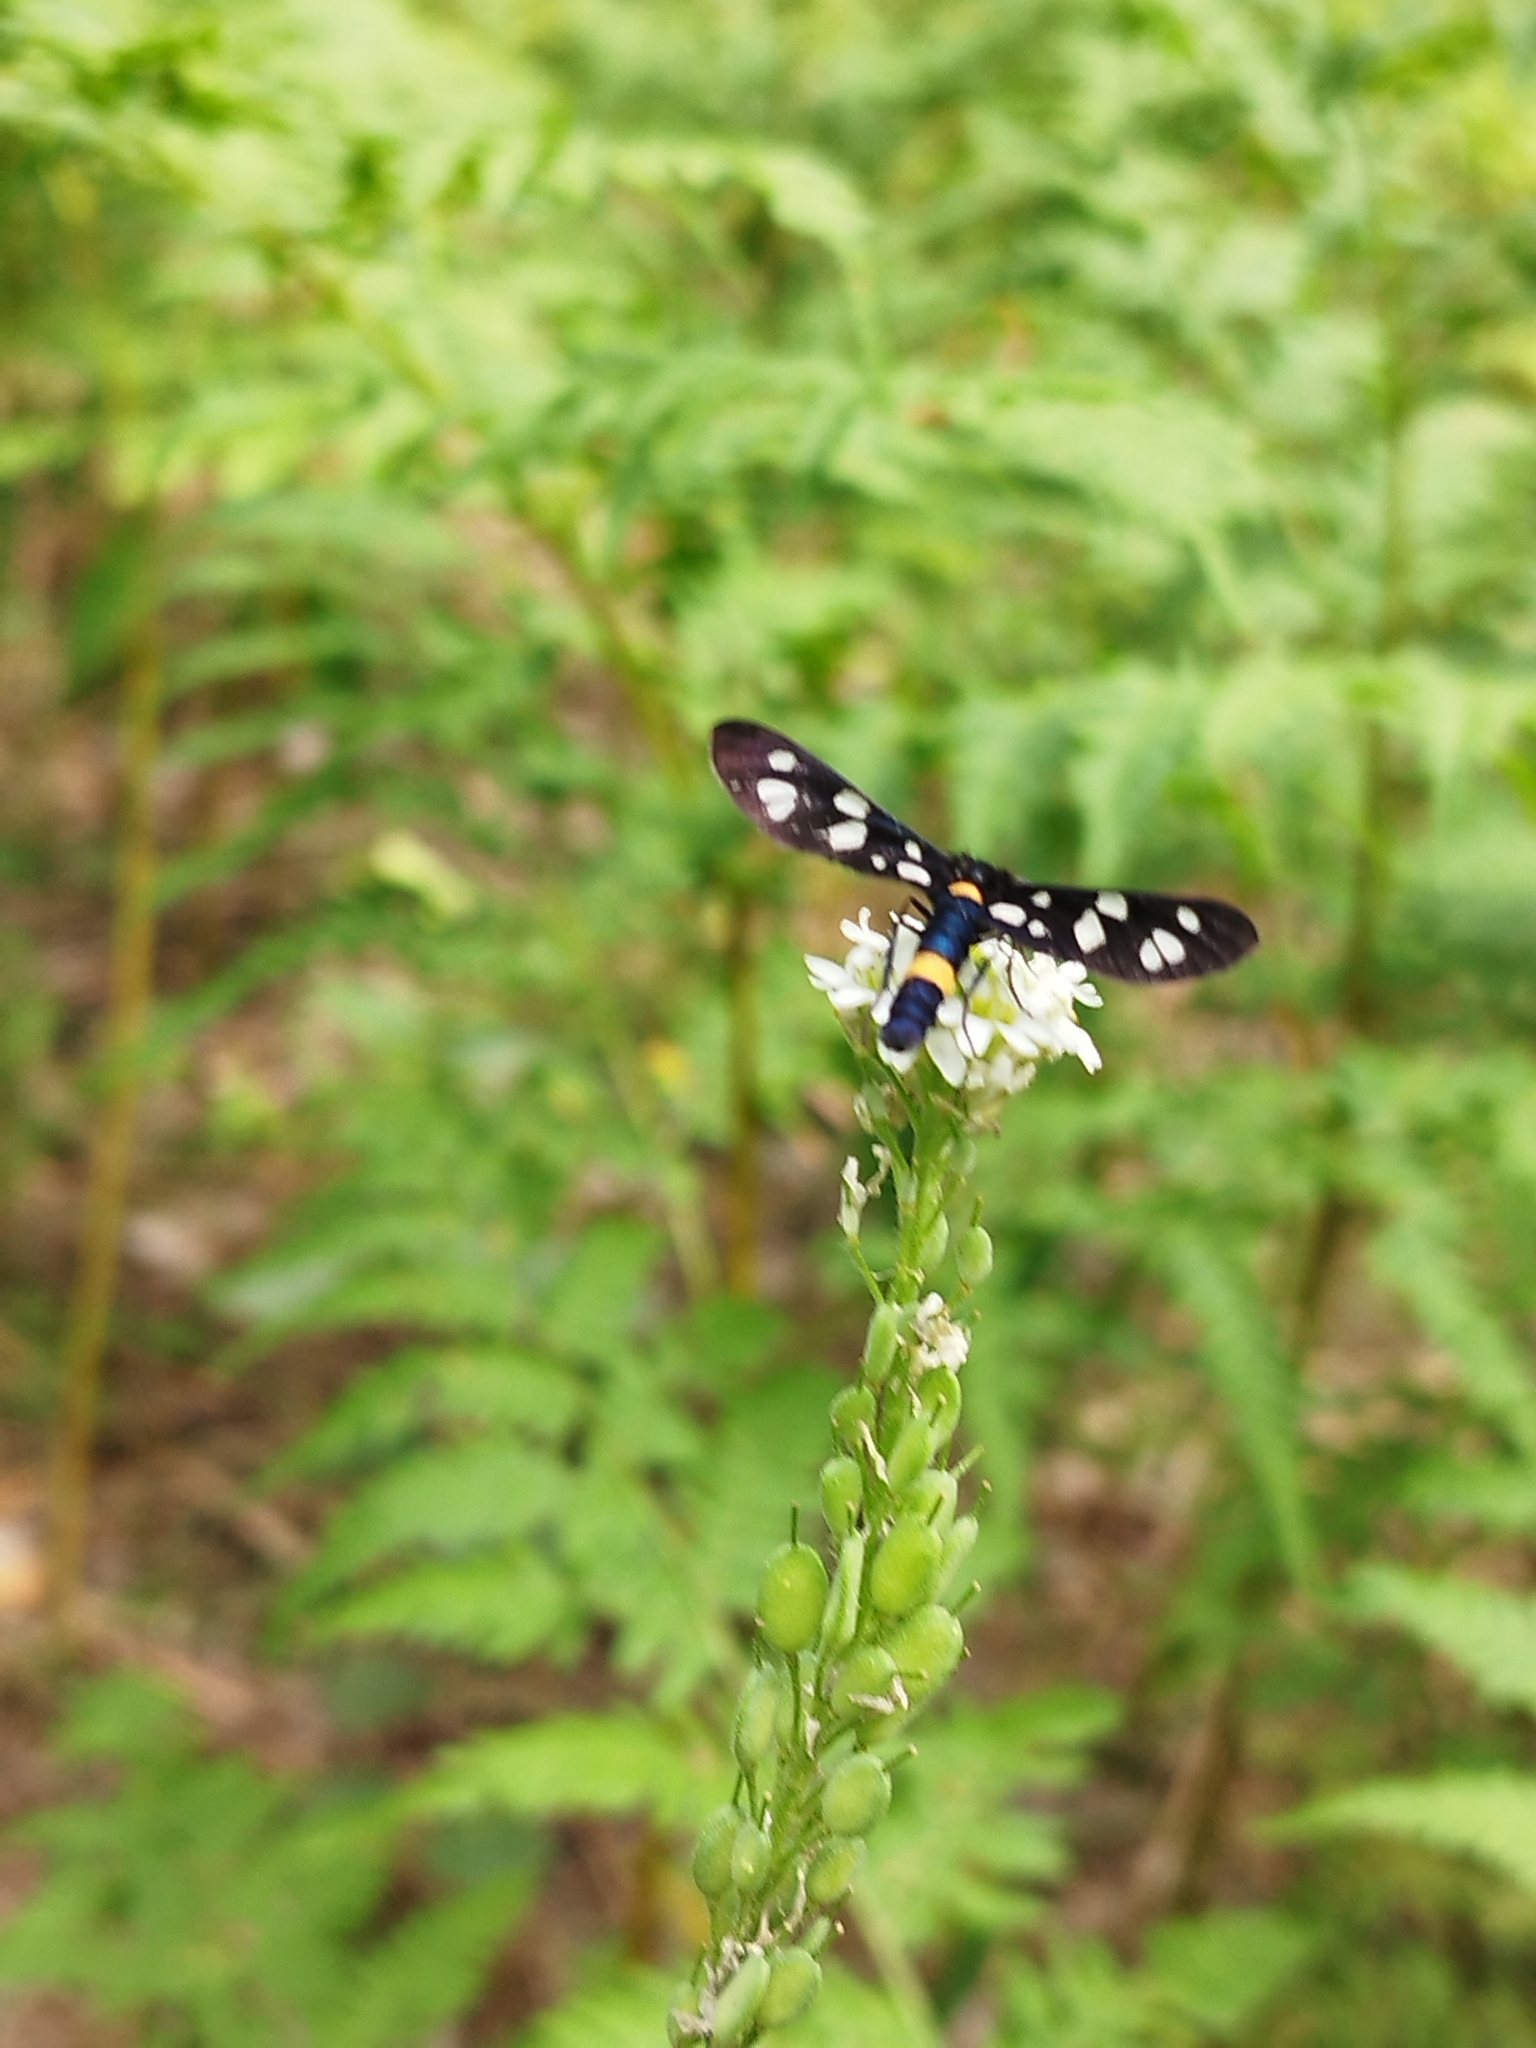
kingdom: Animalia
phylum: Arthropoda
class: Insecta
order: Lepidoptera
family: Erebidae
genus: Amata
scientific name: Amata nigricornis
